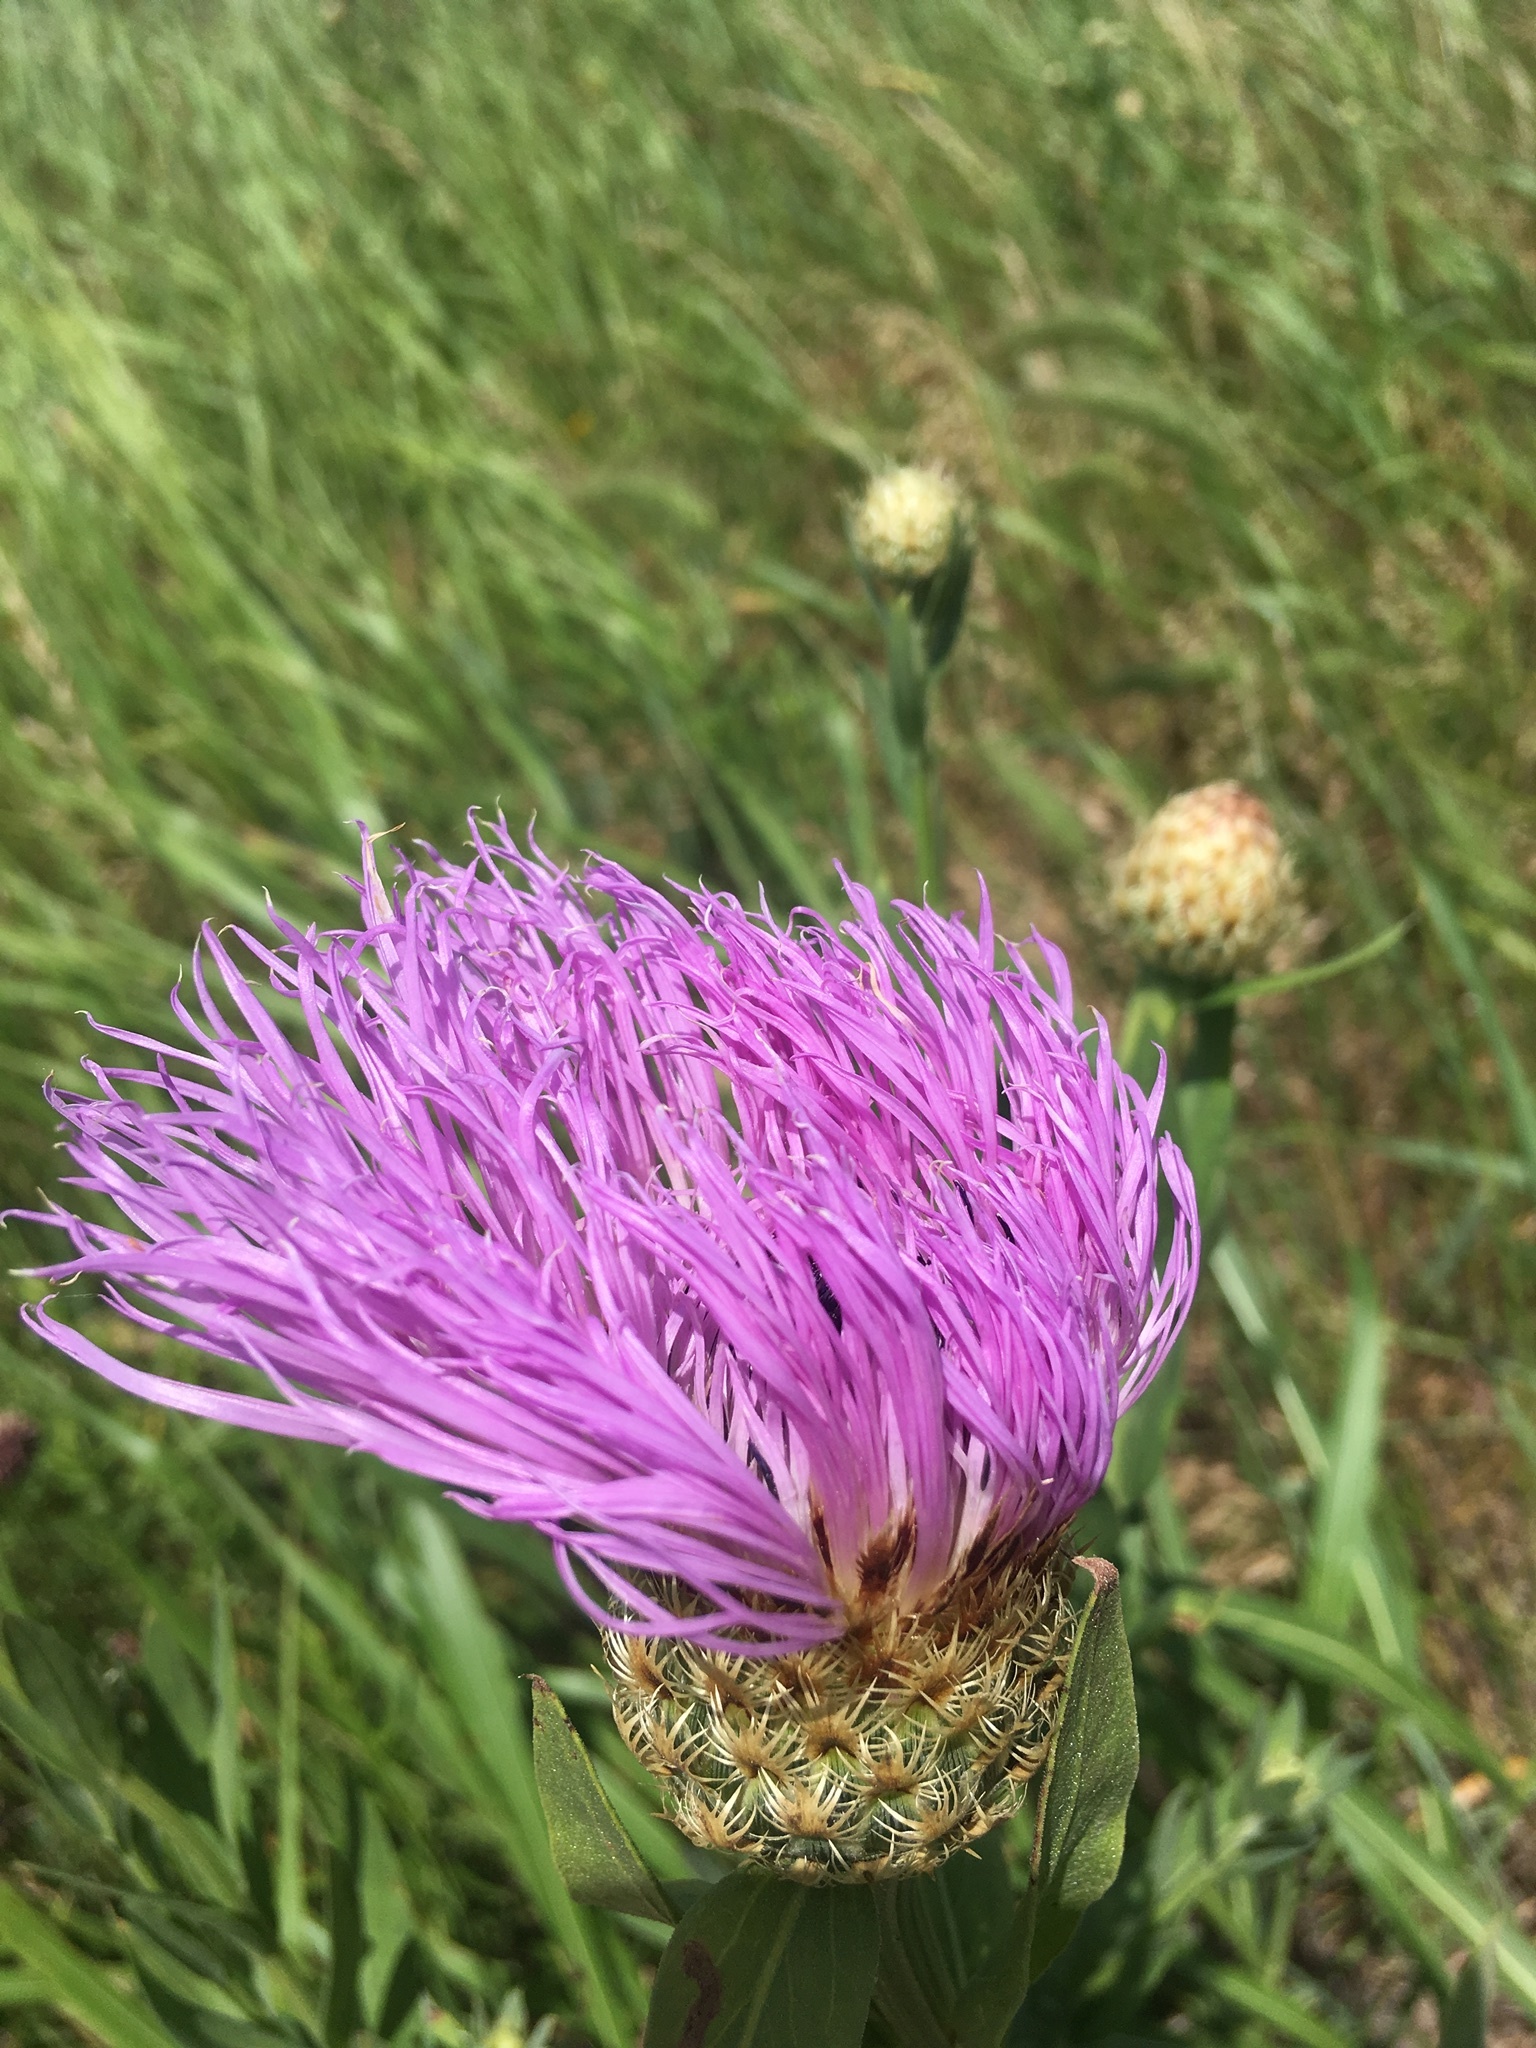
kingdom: Plantae
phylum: Tracheophyta
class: Magnoliopsida
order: Asterales
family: Asteraceae
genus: Plectocephalus
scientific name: Plectocephalus americanus
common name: American basket-flower
